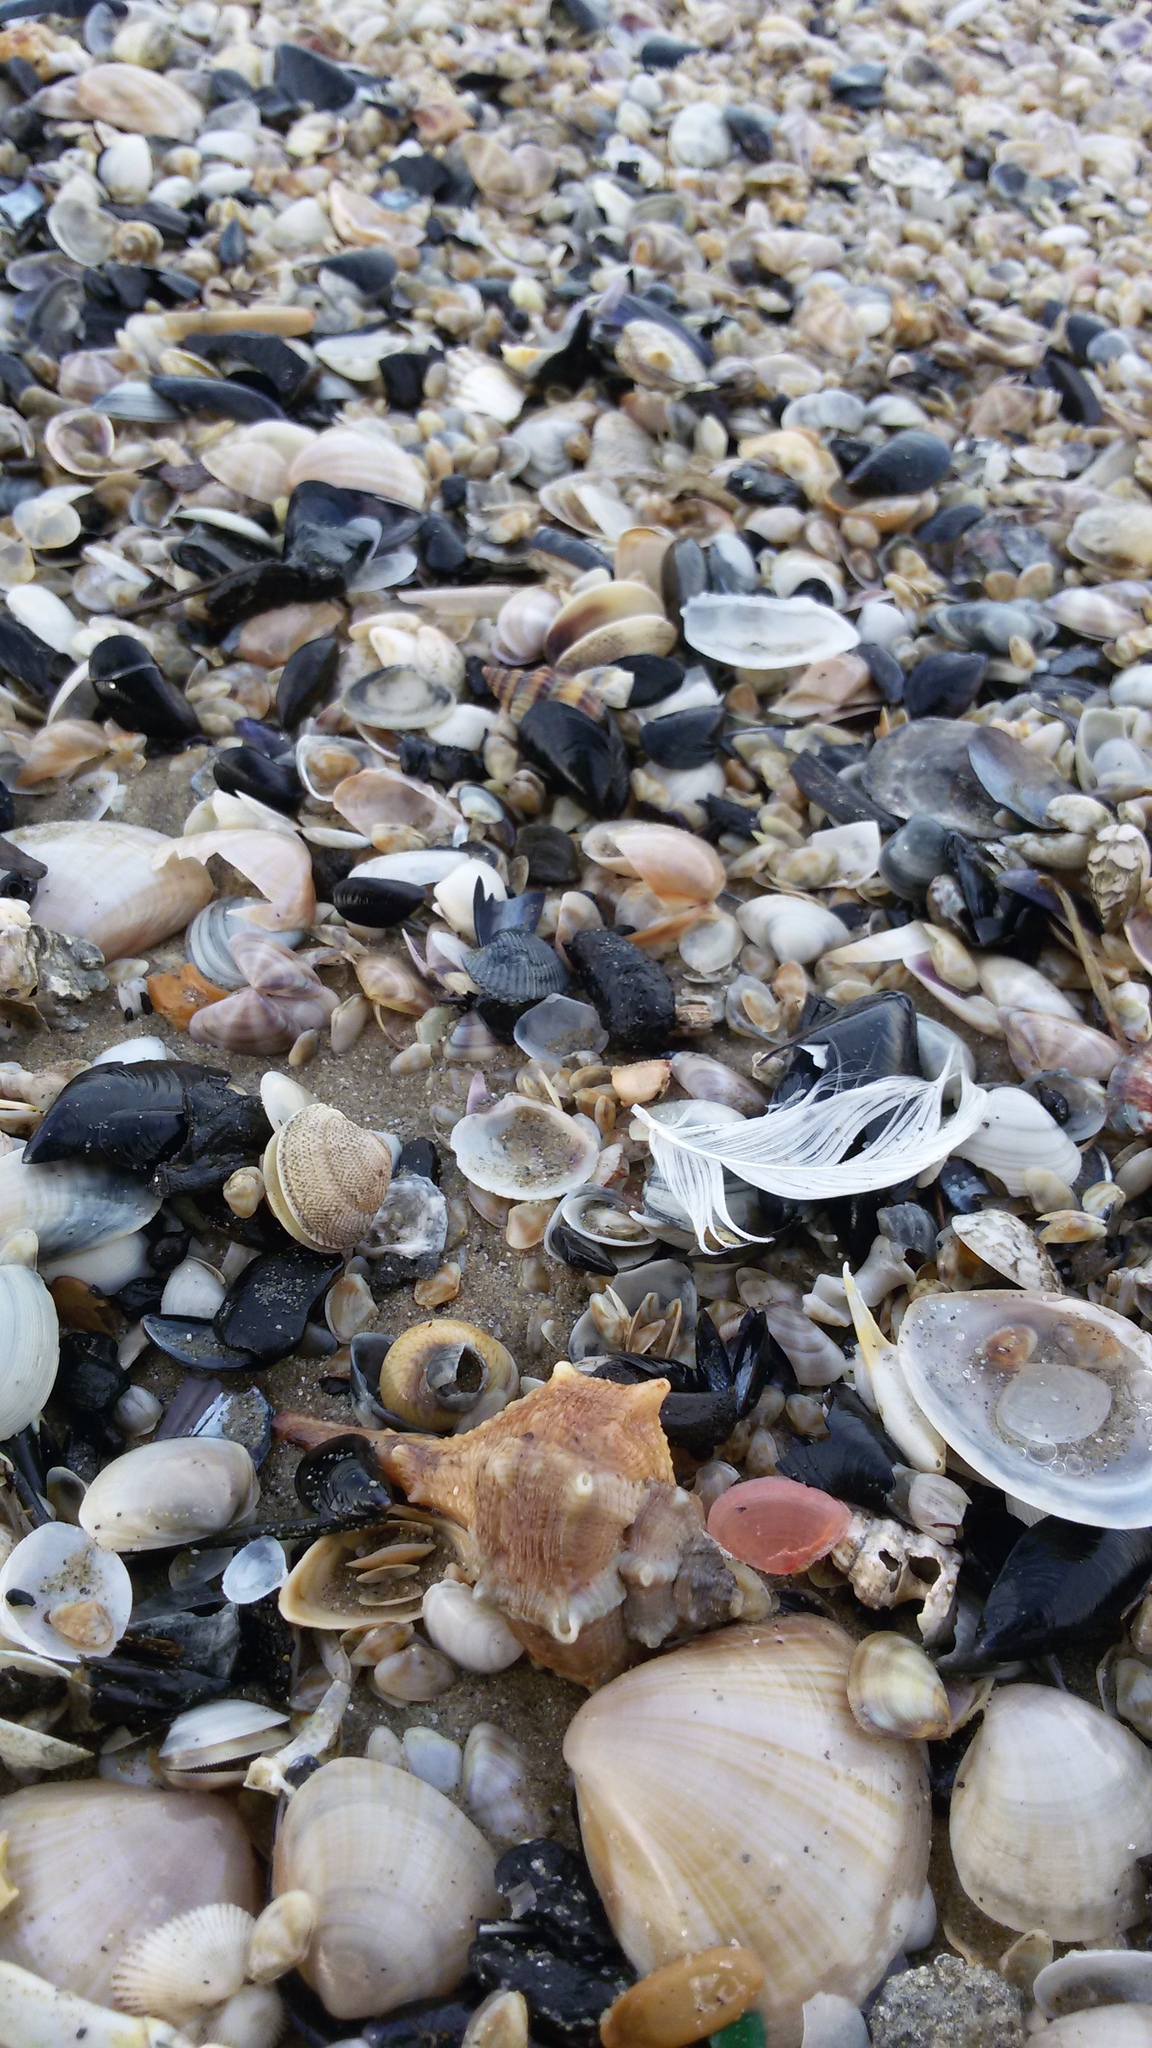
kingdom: Animalia
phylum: Mollusca
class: Gastropoda
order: Neogastropoda
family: Muricidae
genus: Bolinus
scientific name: Bolinus brandaris
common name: Dye murex
